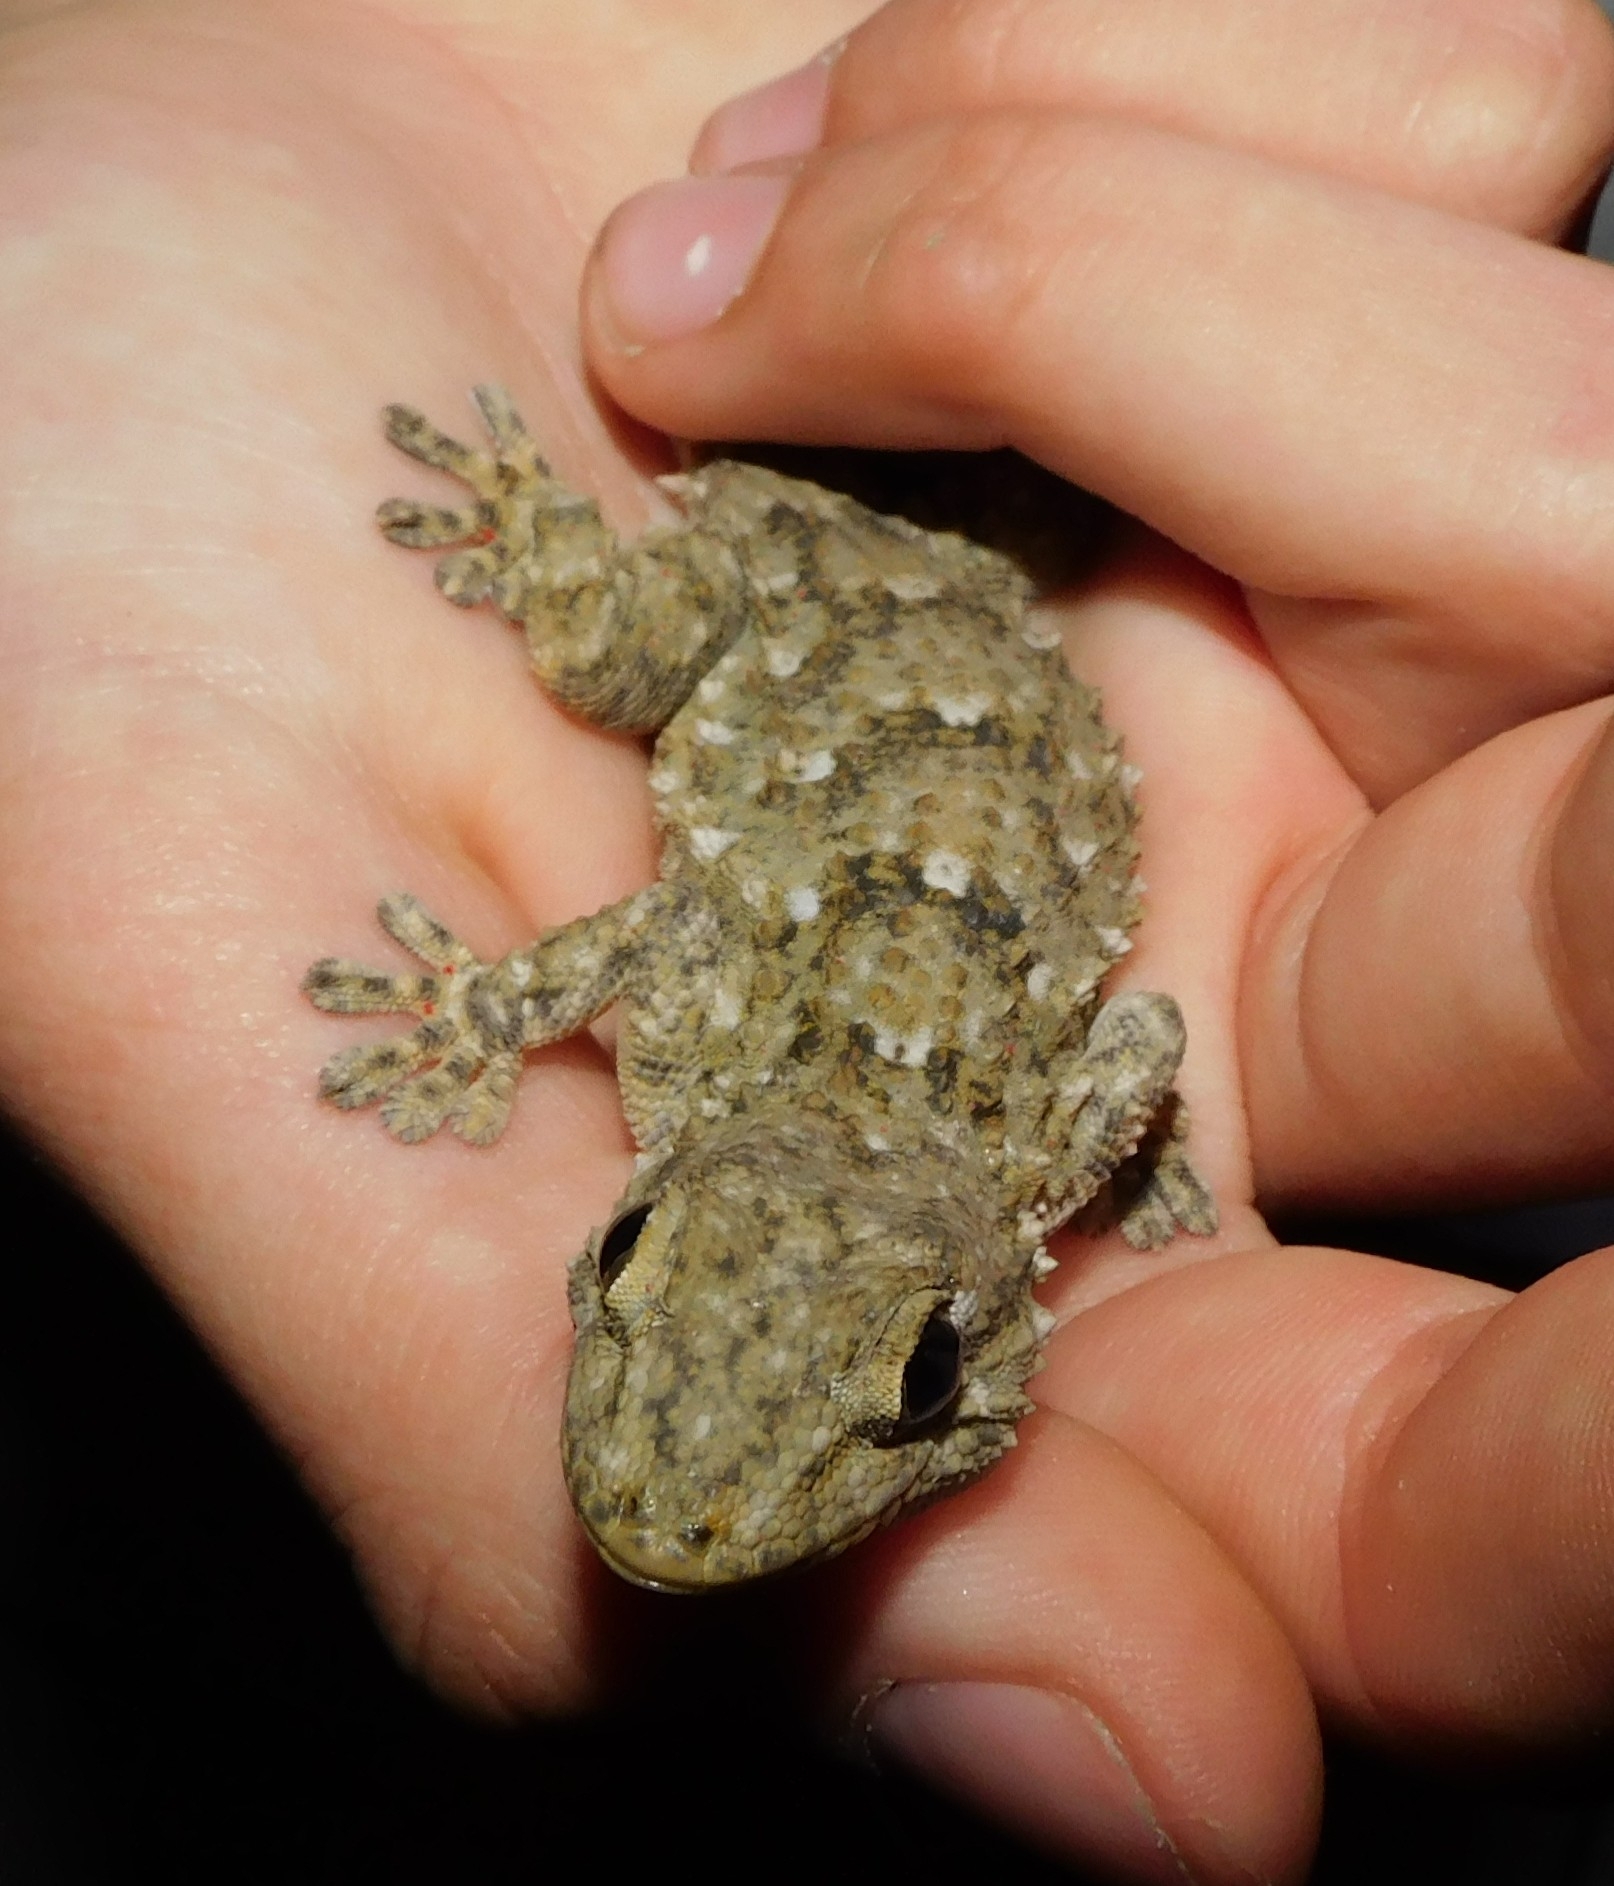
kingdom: Animalia
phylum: Chordata
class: Squamata
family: Phyllodactylidae
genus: Tarentola
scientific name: Tarentola mauritanica
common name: Moorish gecko
